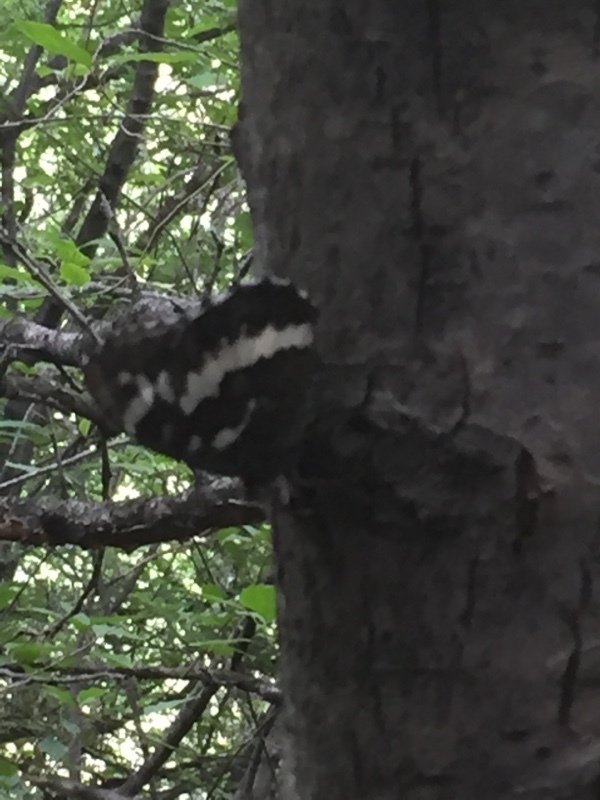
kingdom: Animalia
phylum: Arthropoda
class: Insecta
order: Lepidoptera
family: Lycaenidae
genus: Loweia
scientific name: Loweia tityrus
